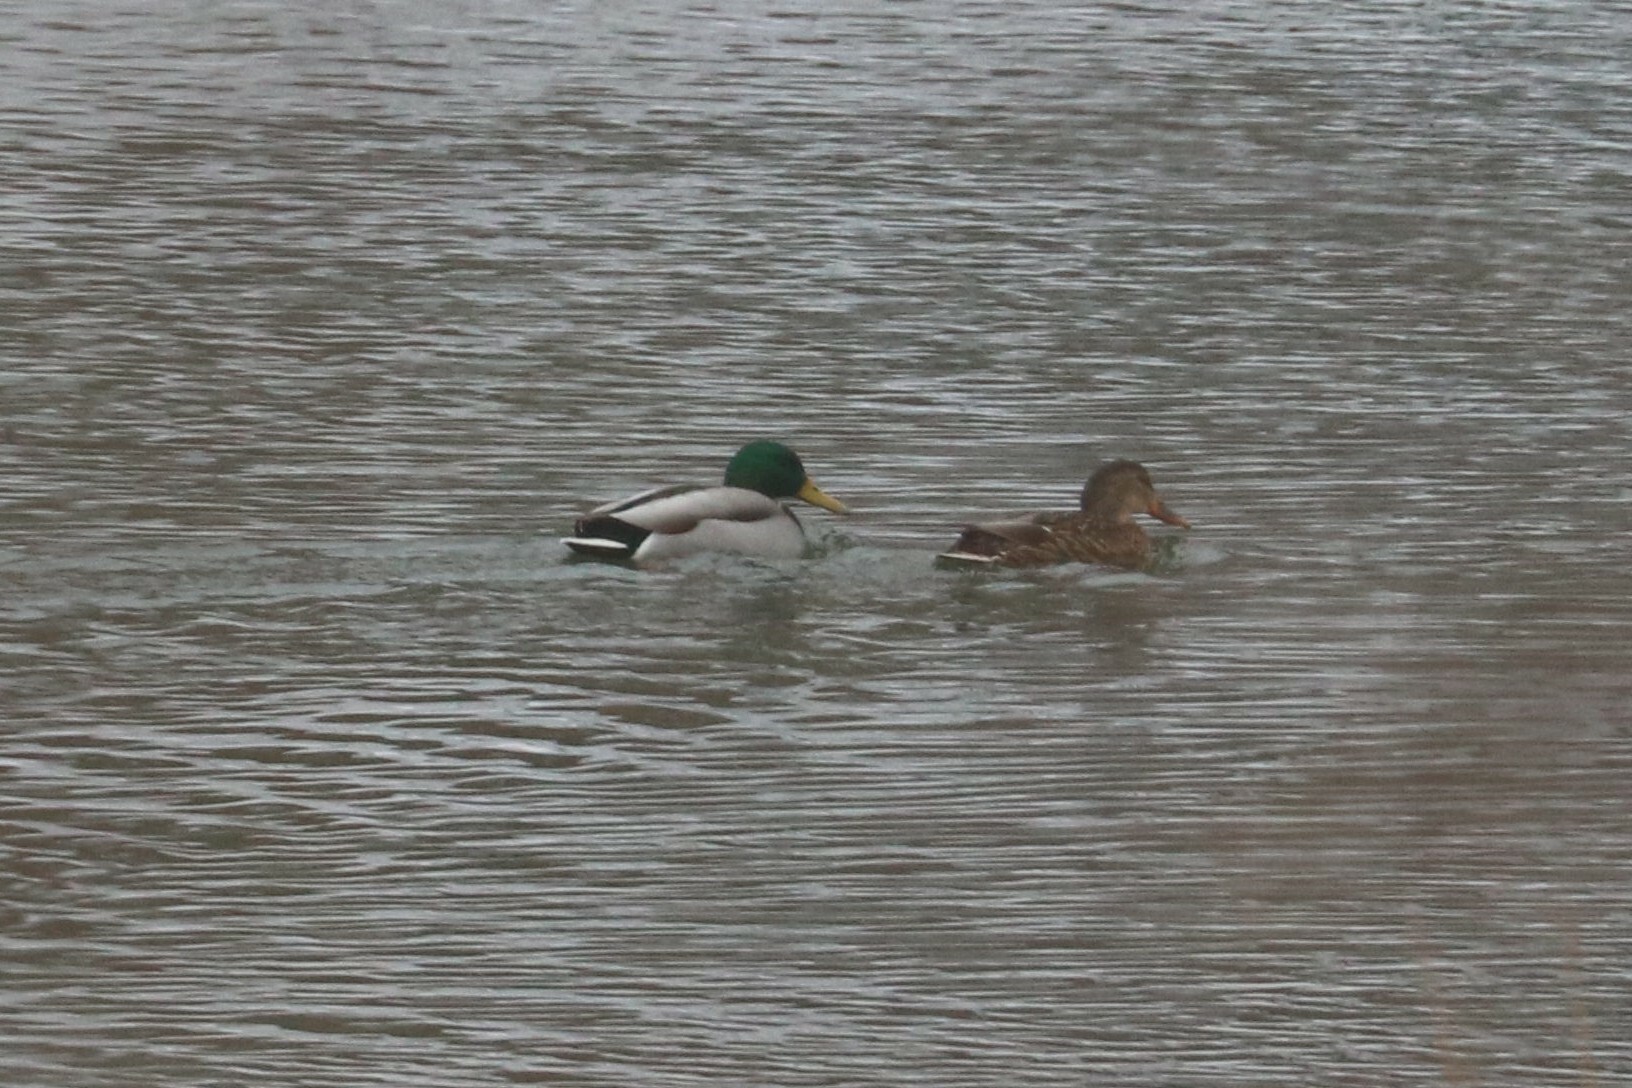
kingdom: Animalia
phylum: Chordata
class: Aves
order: Anseriformes
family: Anatidae
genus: Anas
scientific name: Anas platyrhynchos
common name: Mallard
